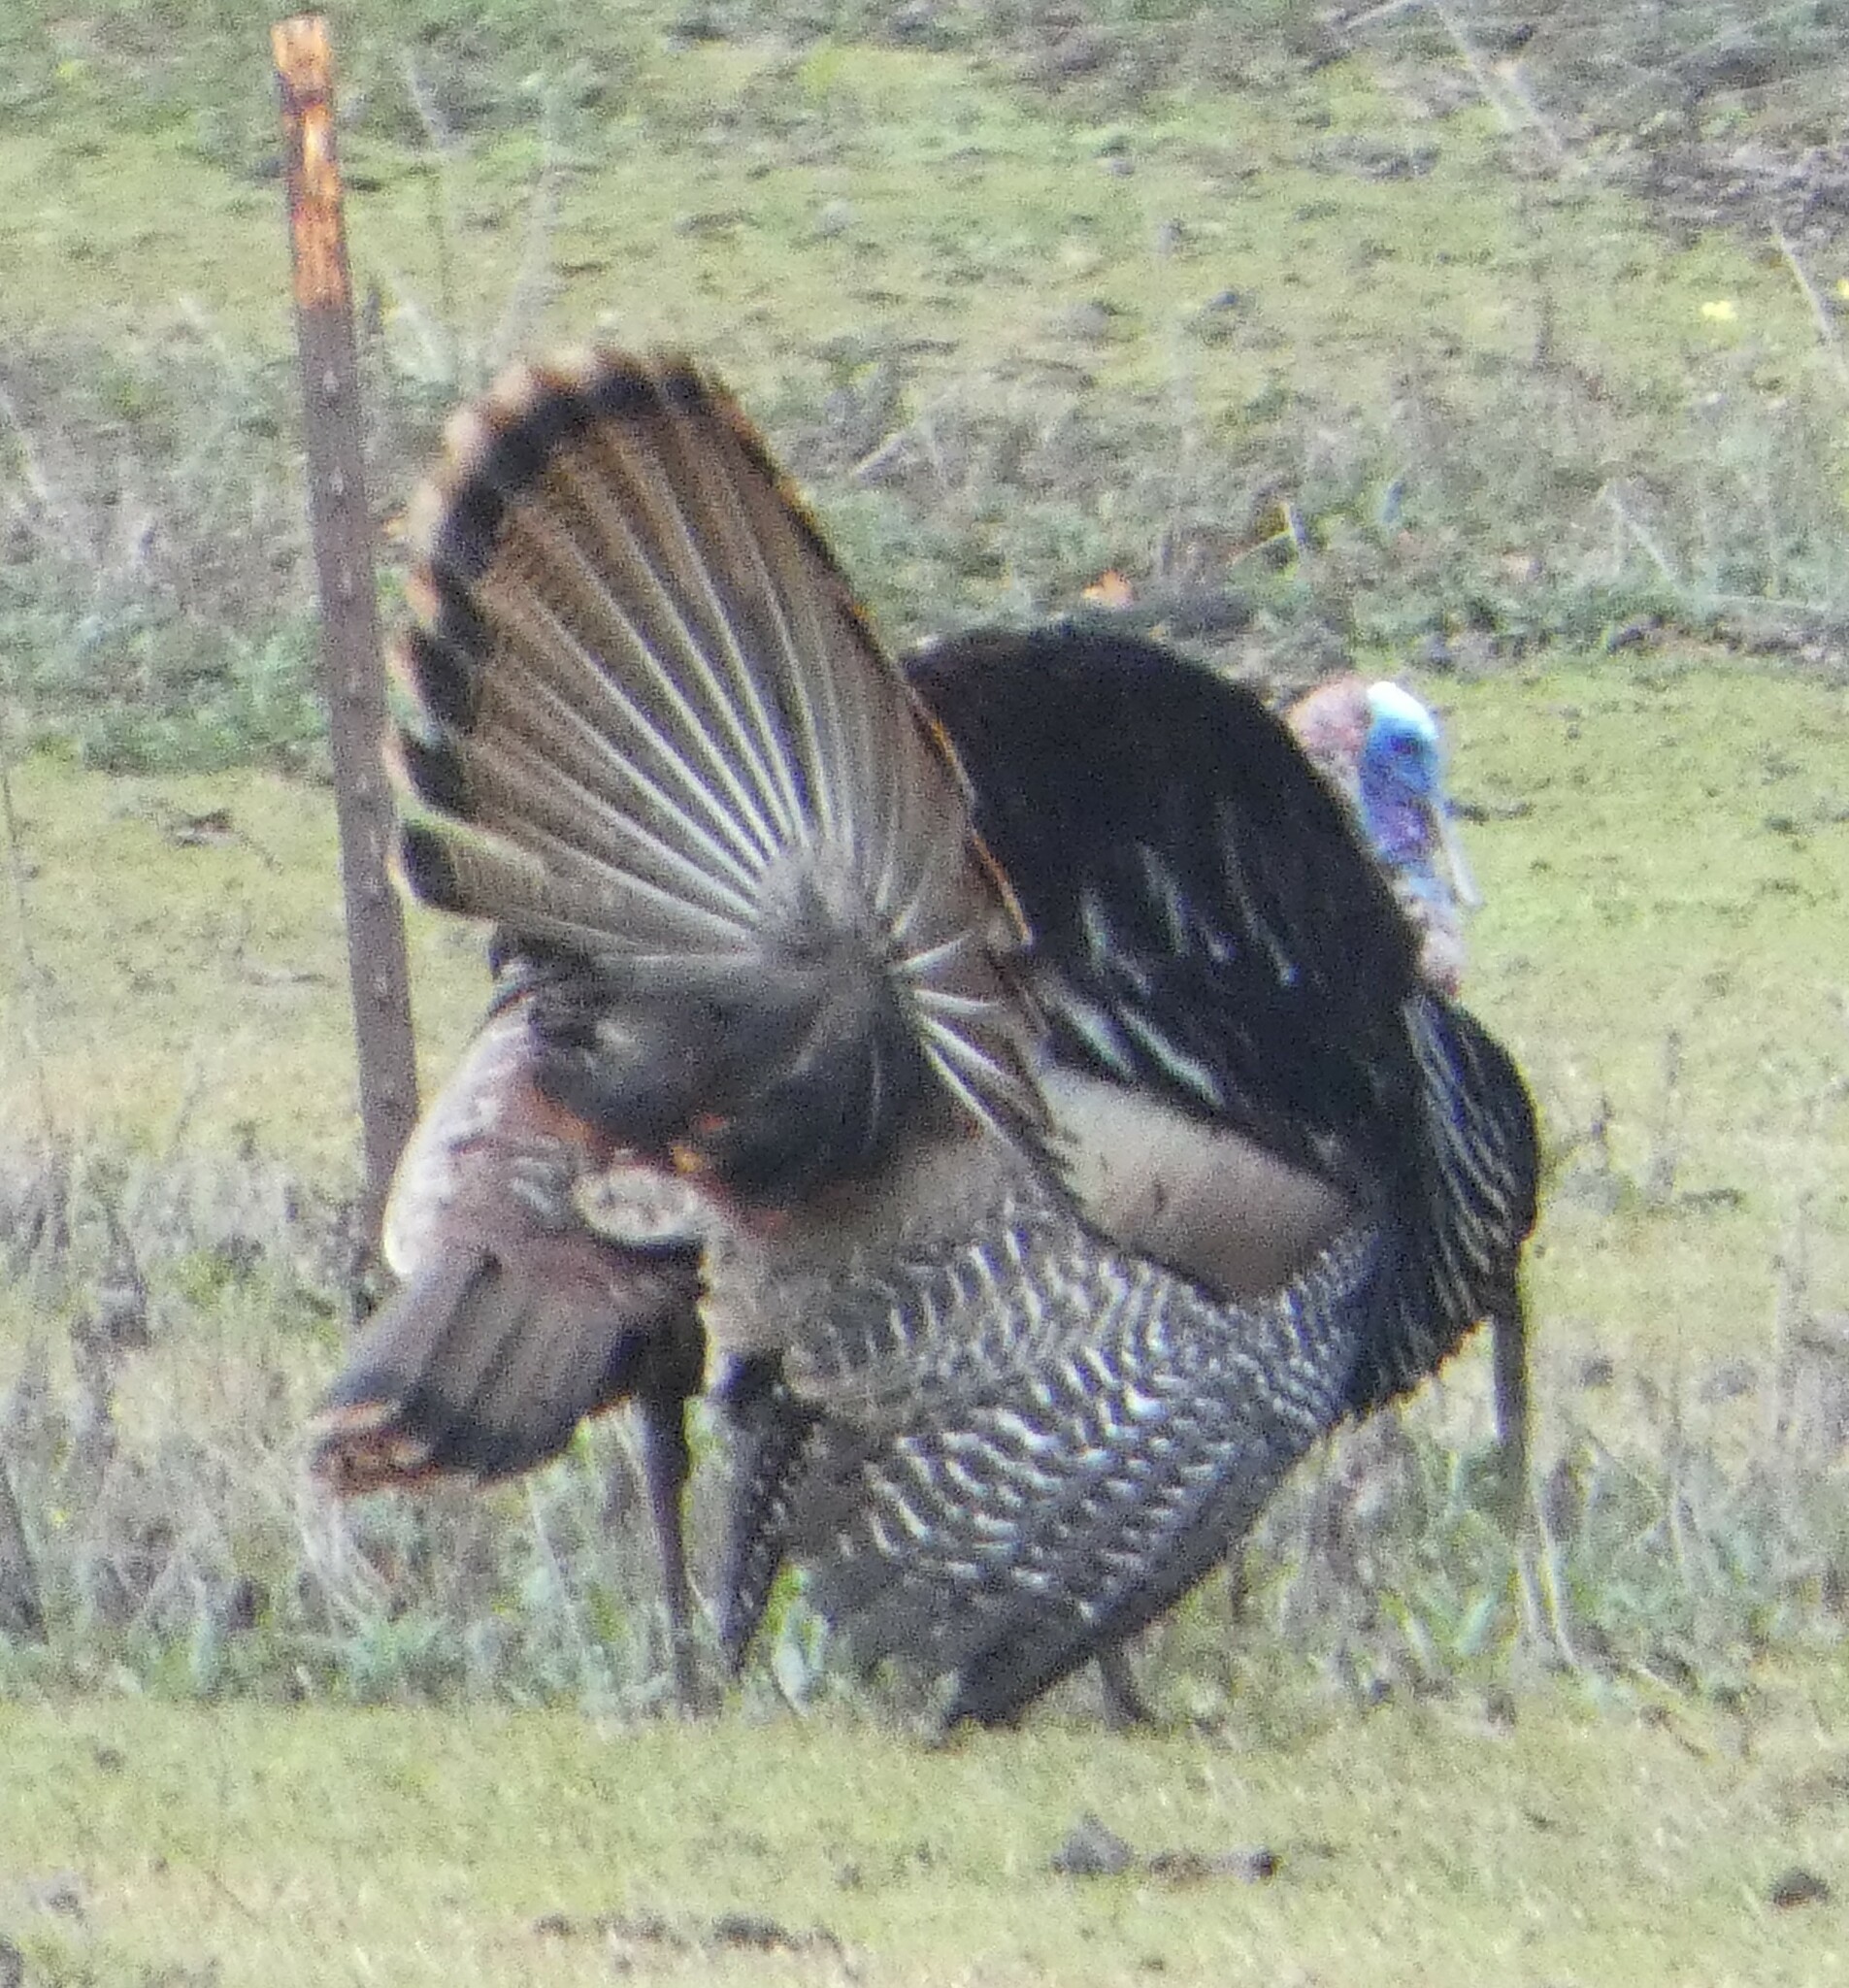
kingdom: Animalia
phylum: Chordata
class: Aves
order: Galliformes
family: Phasianidae
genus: Meleagris
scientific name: Meleagris gallopavo
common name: Wild turkey
